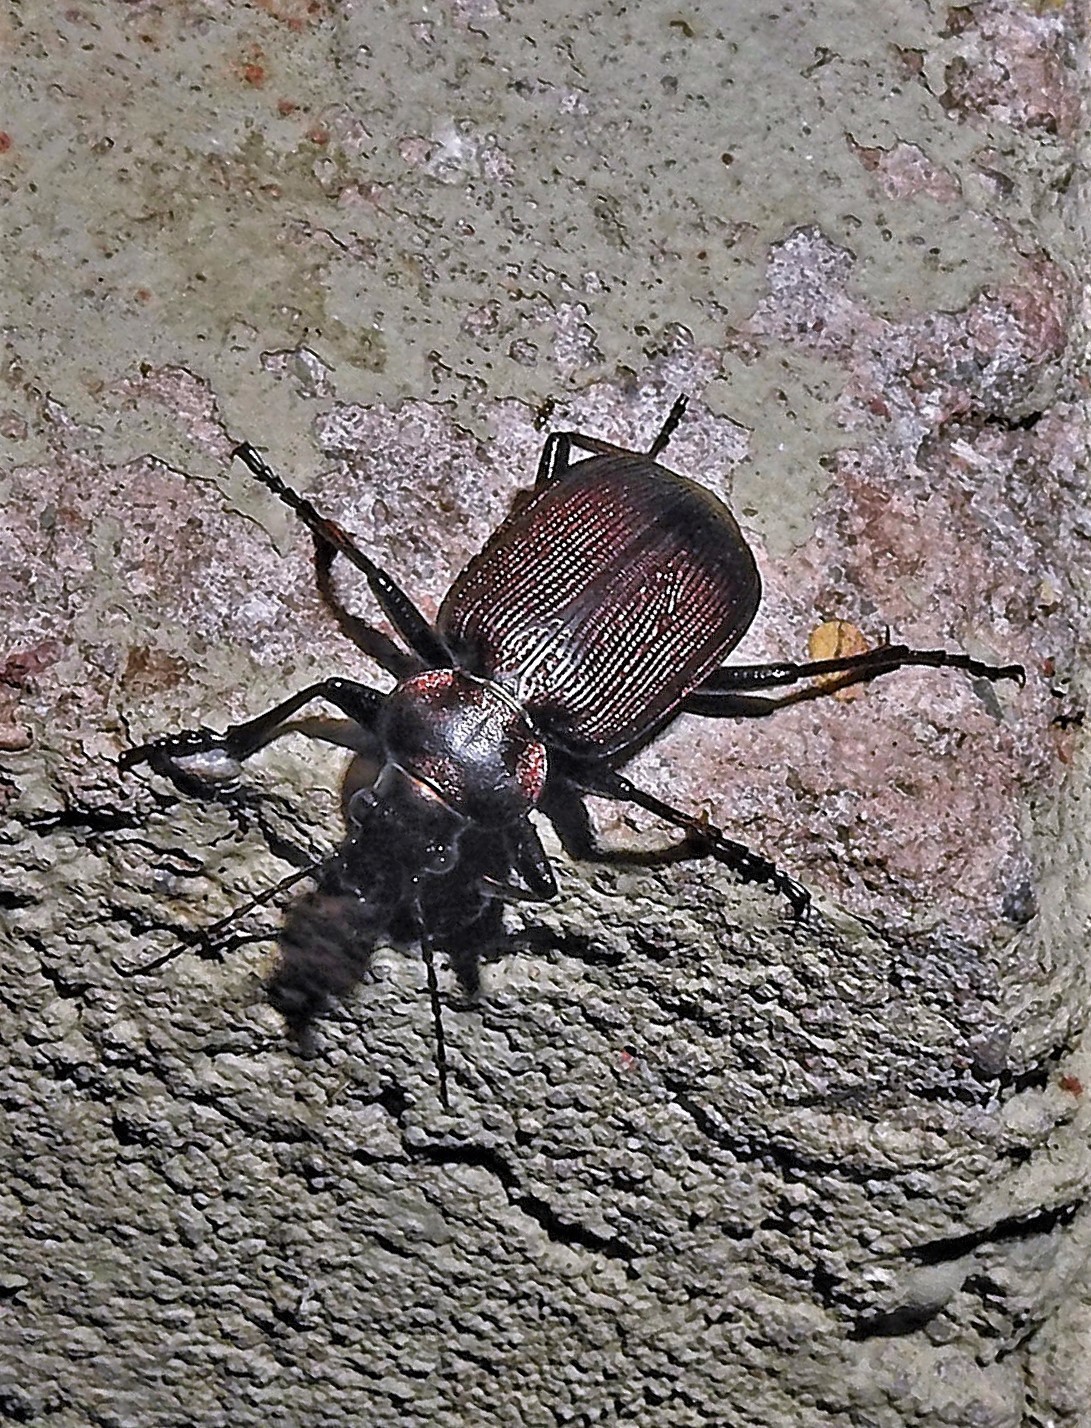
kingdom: Animalia
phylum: Arthropoda
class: Insecta
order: Coleoptera
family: Carabidae
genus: Calosoma
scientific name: Calosoma argentinense
